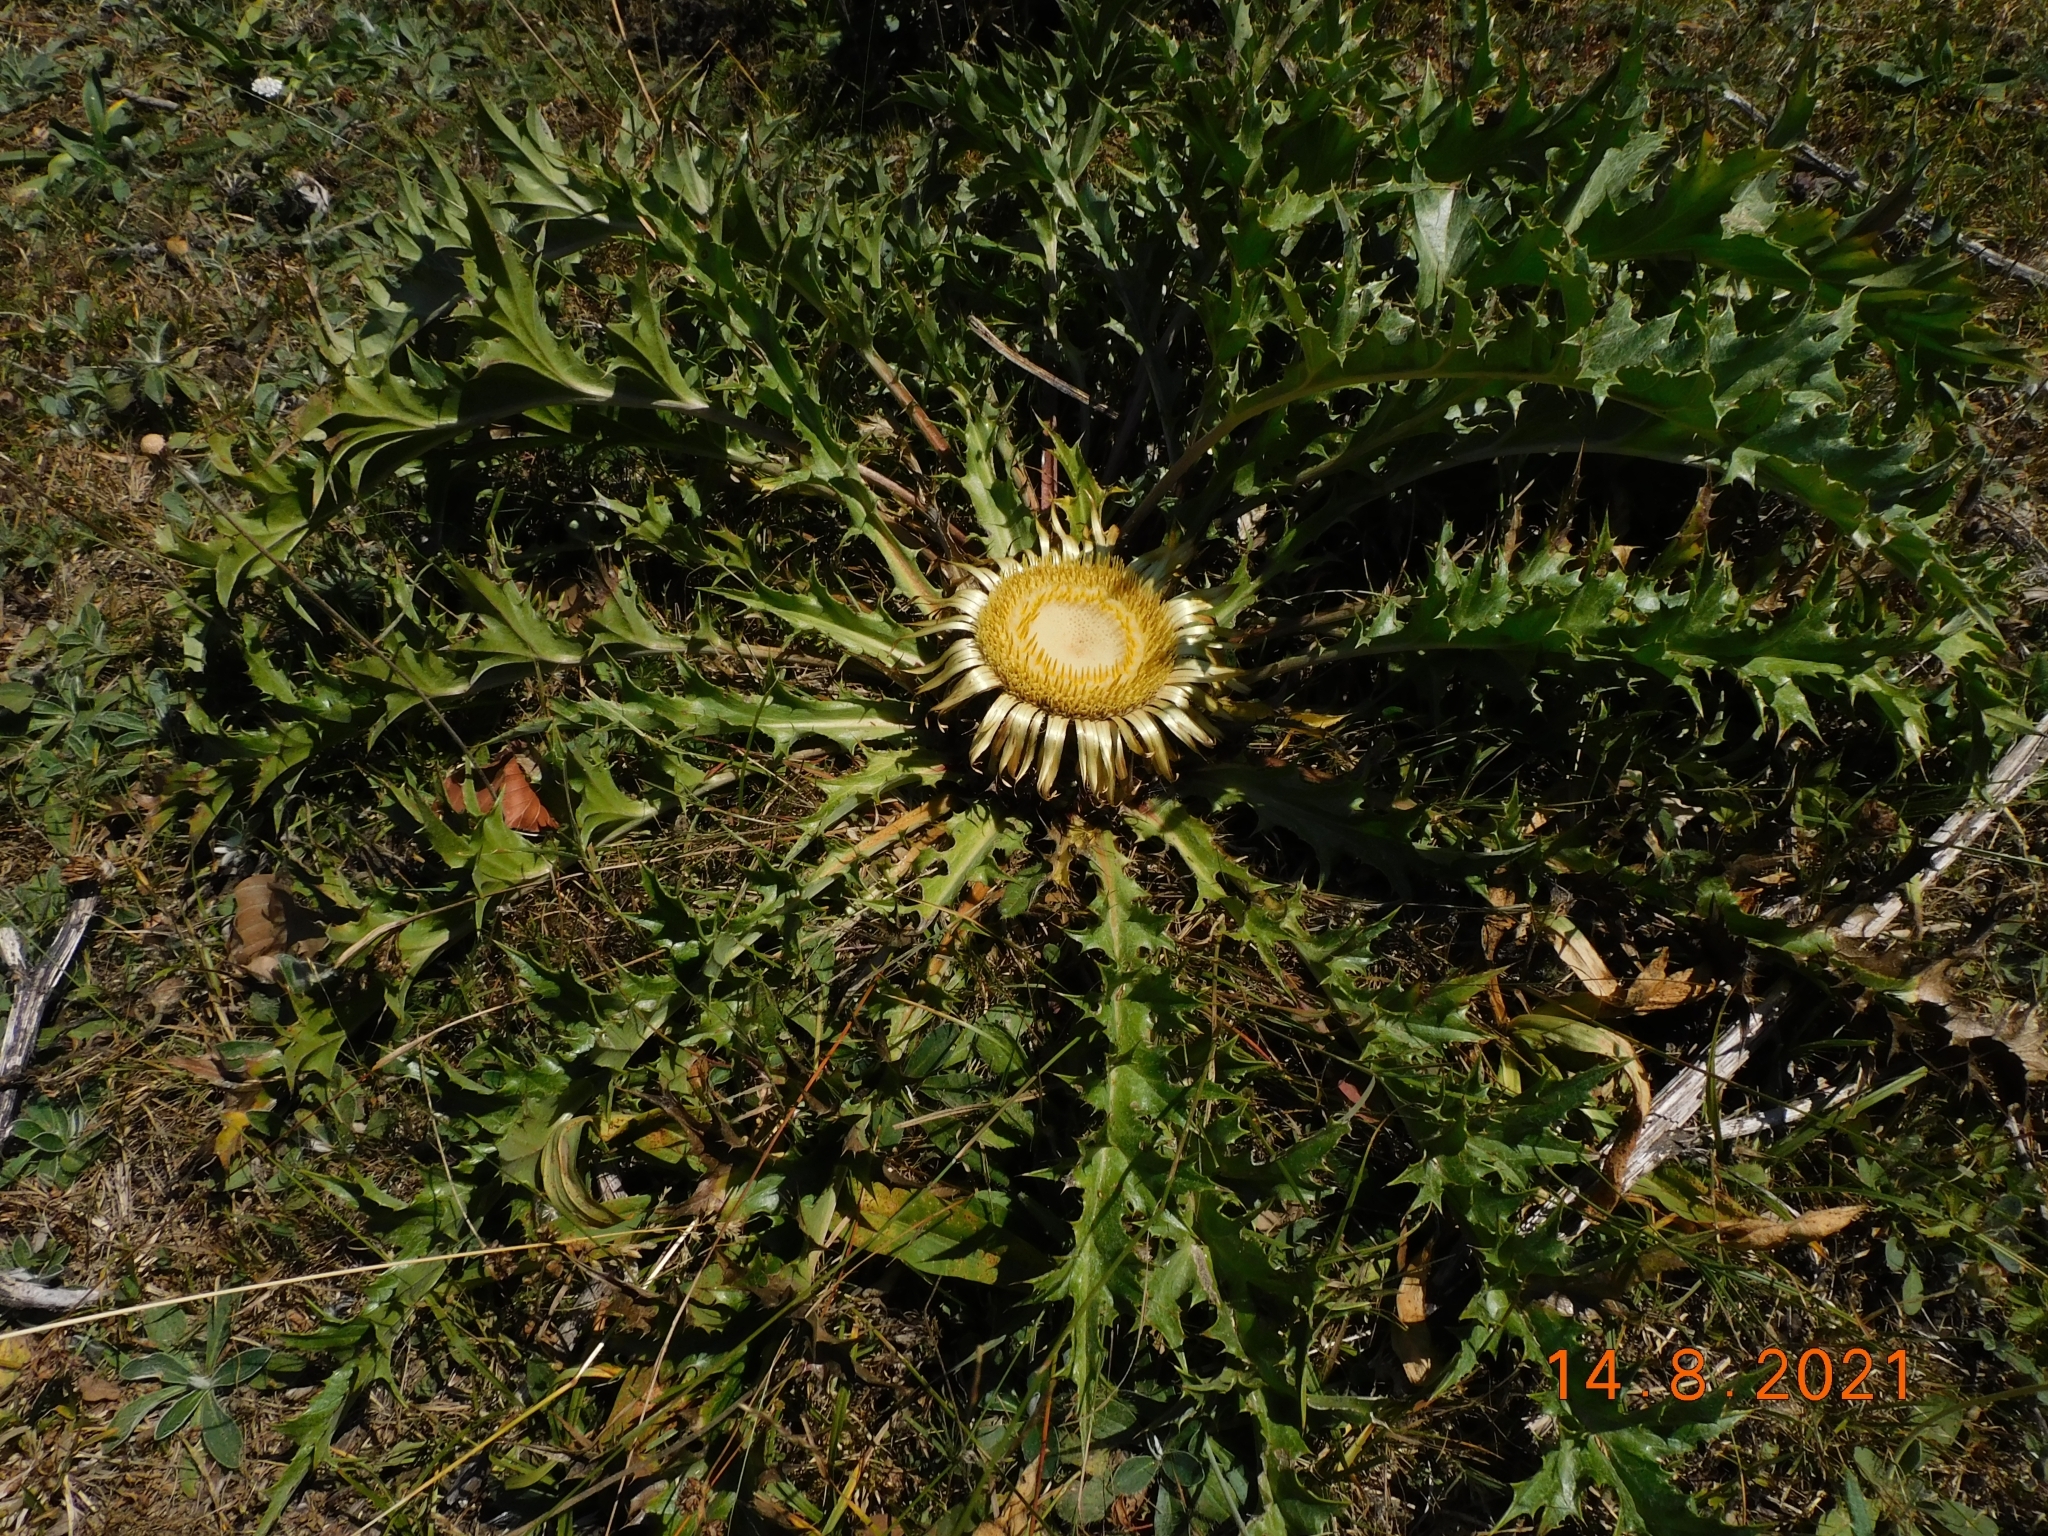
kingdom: Plantae
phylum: Tracheophyta
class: Magnoliopsida
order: Asterales
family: Asteraceae
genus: Carlina
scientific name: Carlina acanthifolia
